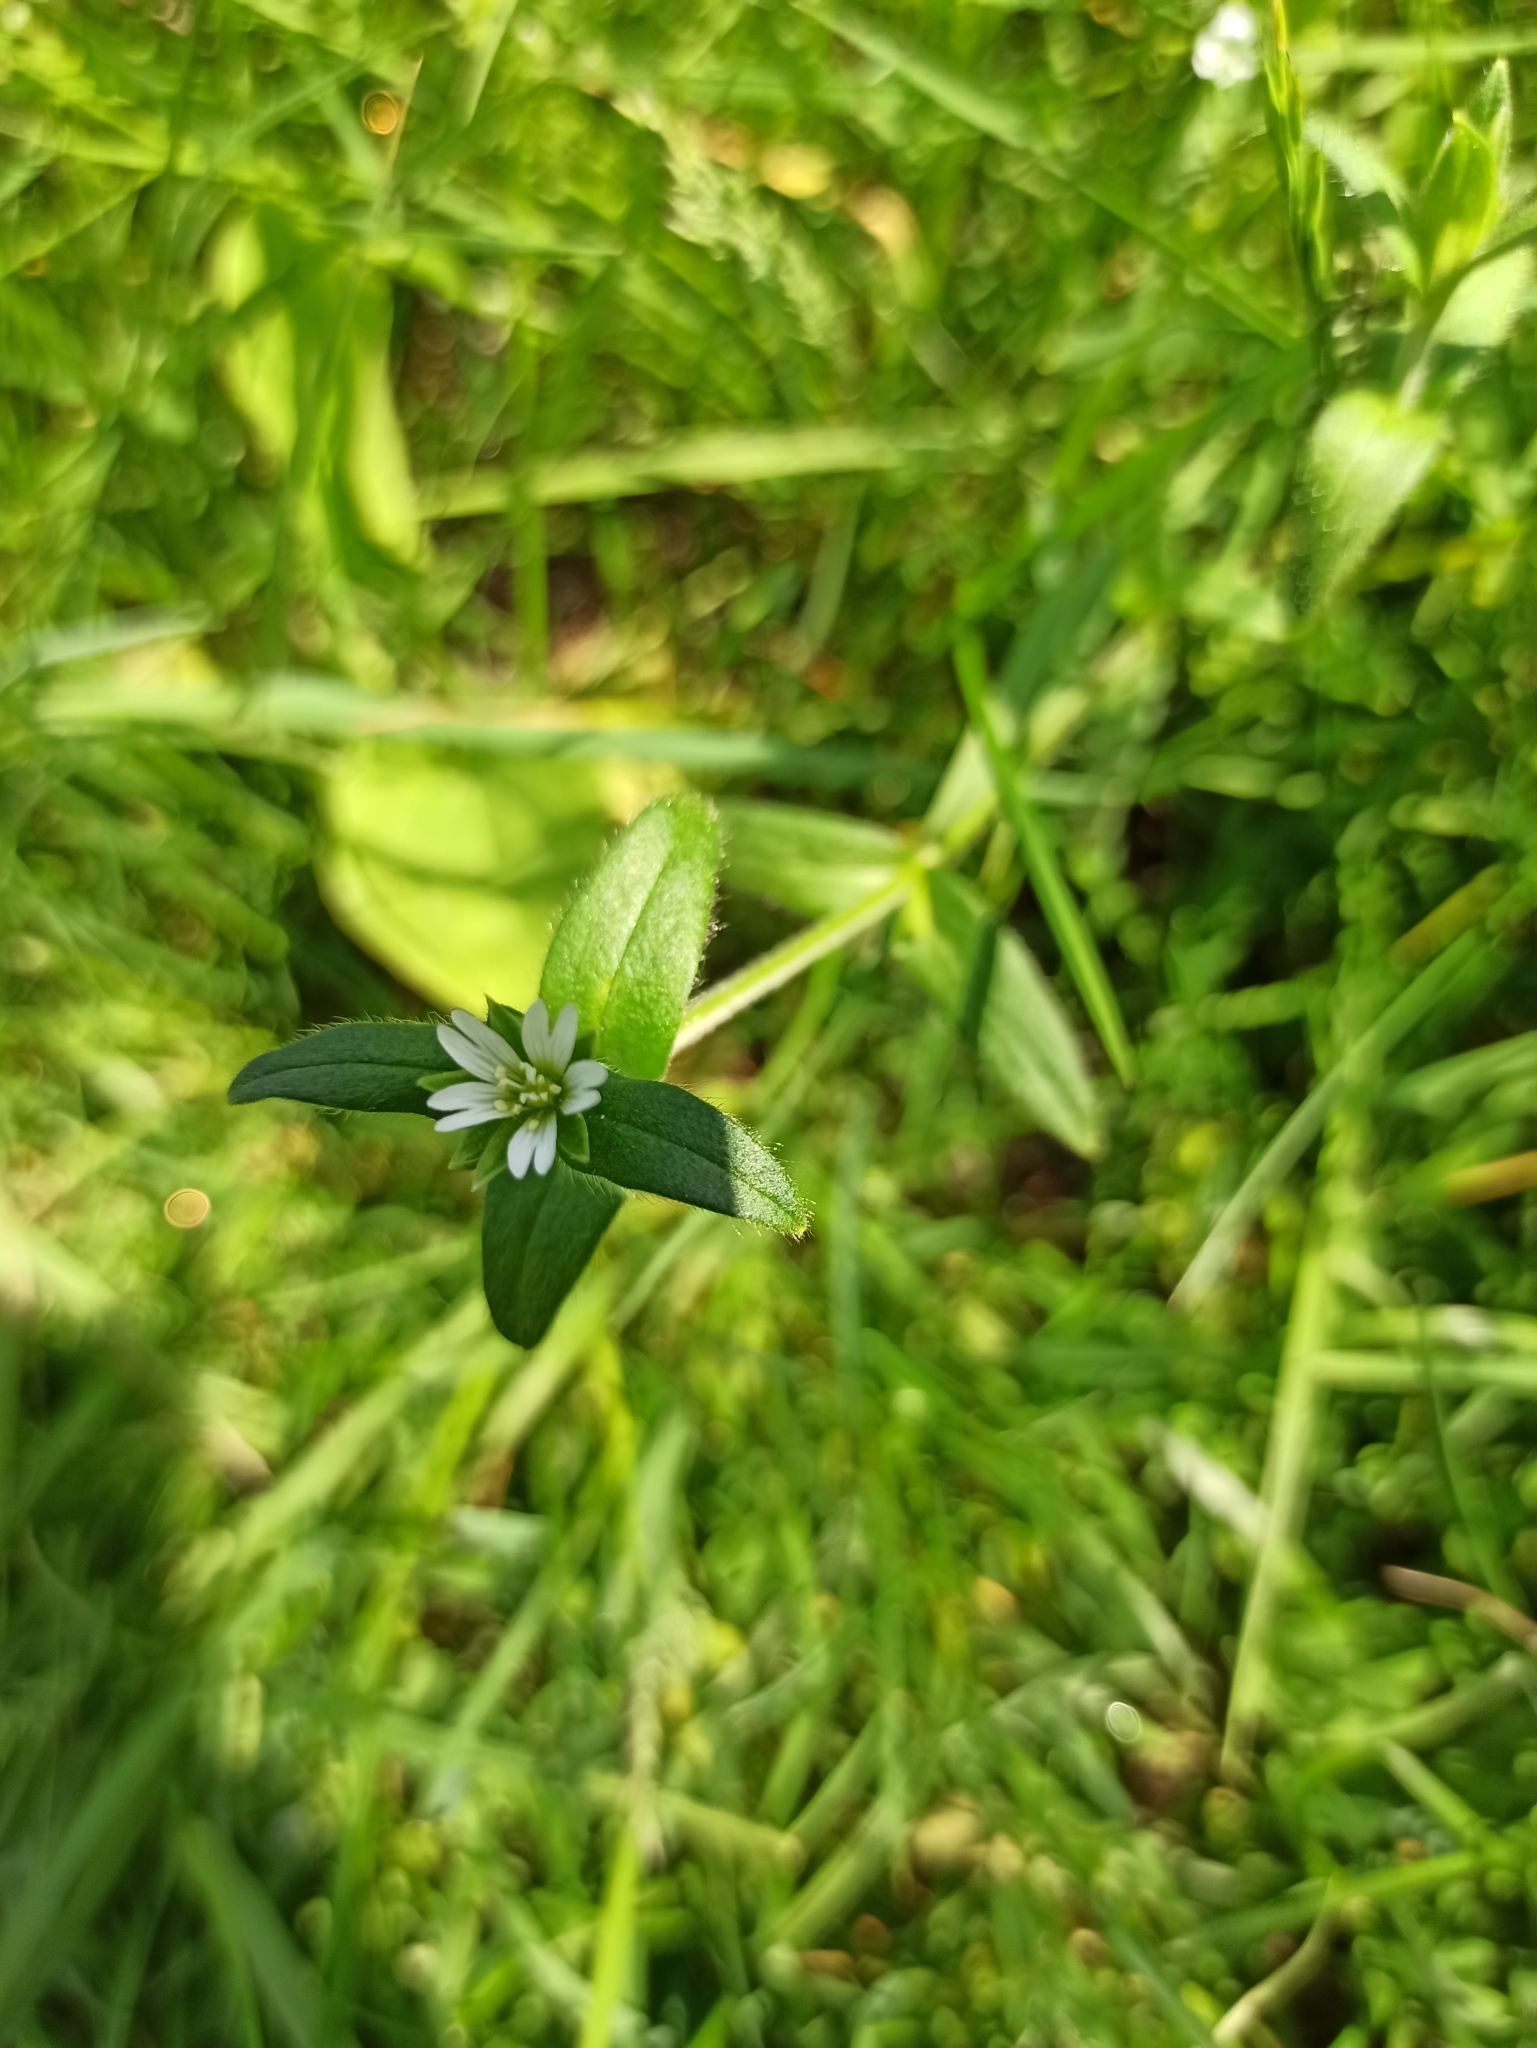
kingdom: Plantae
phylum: Tracheophyta
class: Magnoliopsida
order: Caryophyllales
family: Caryophyllaceae
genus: Cerastium
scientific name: Cerastium holosteoides
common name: Big chickweed
